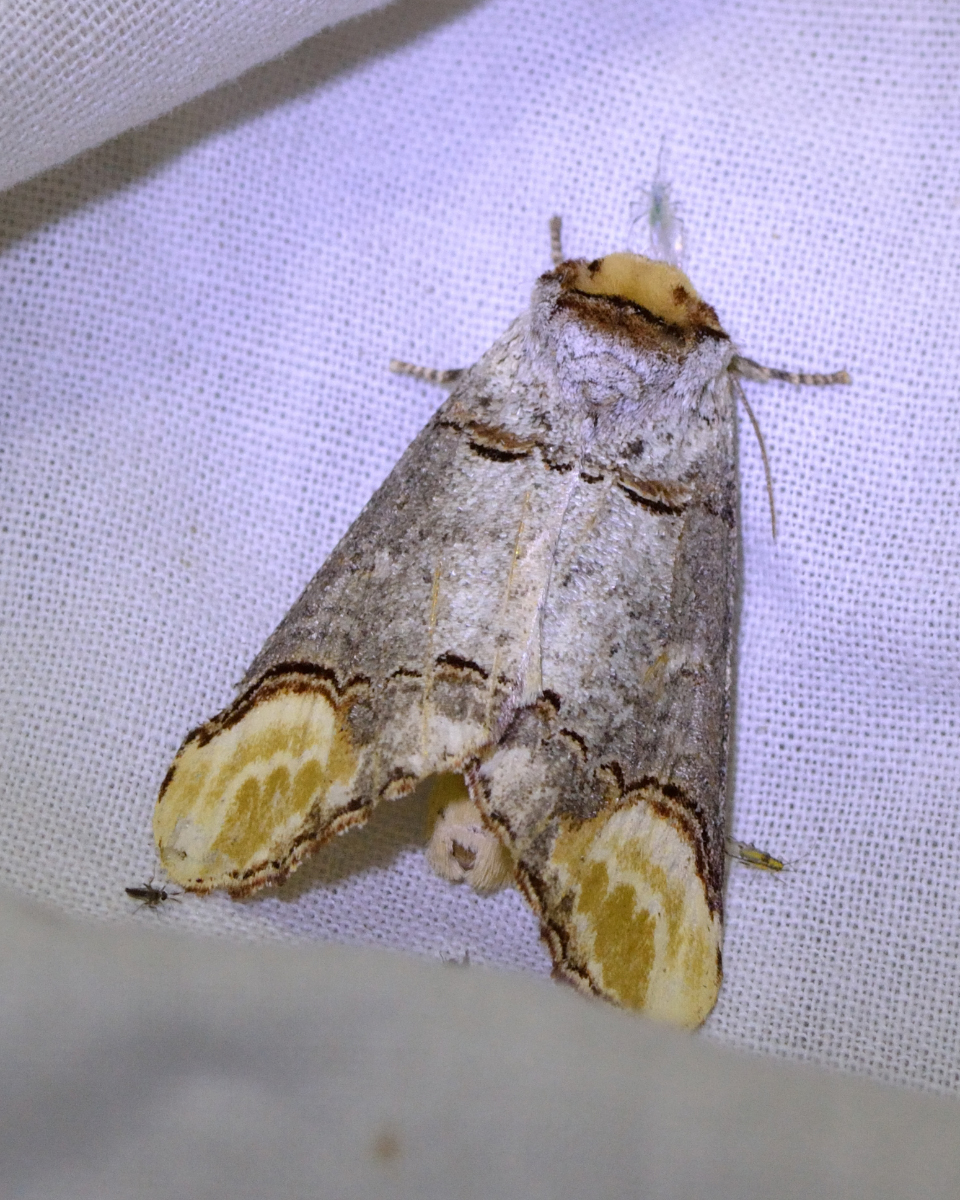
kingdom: Animalia
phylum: Arthropoda
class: Insecta
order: Lepidoptera
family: Notodontidae
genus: Phalera
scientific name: Phalera bucephala
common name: Buff-tip
